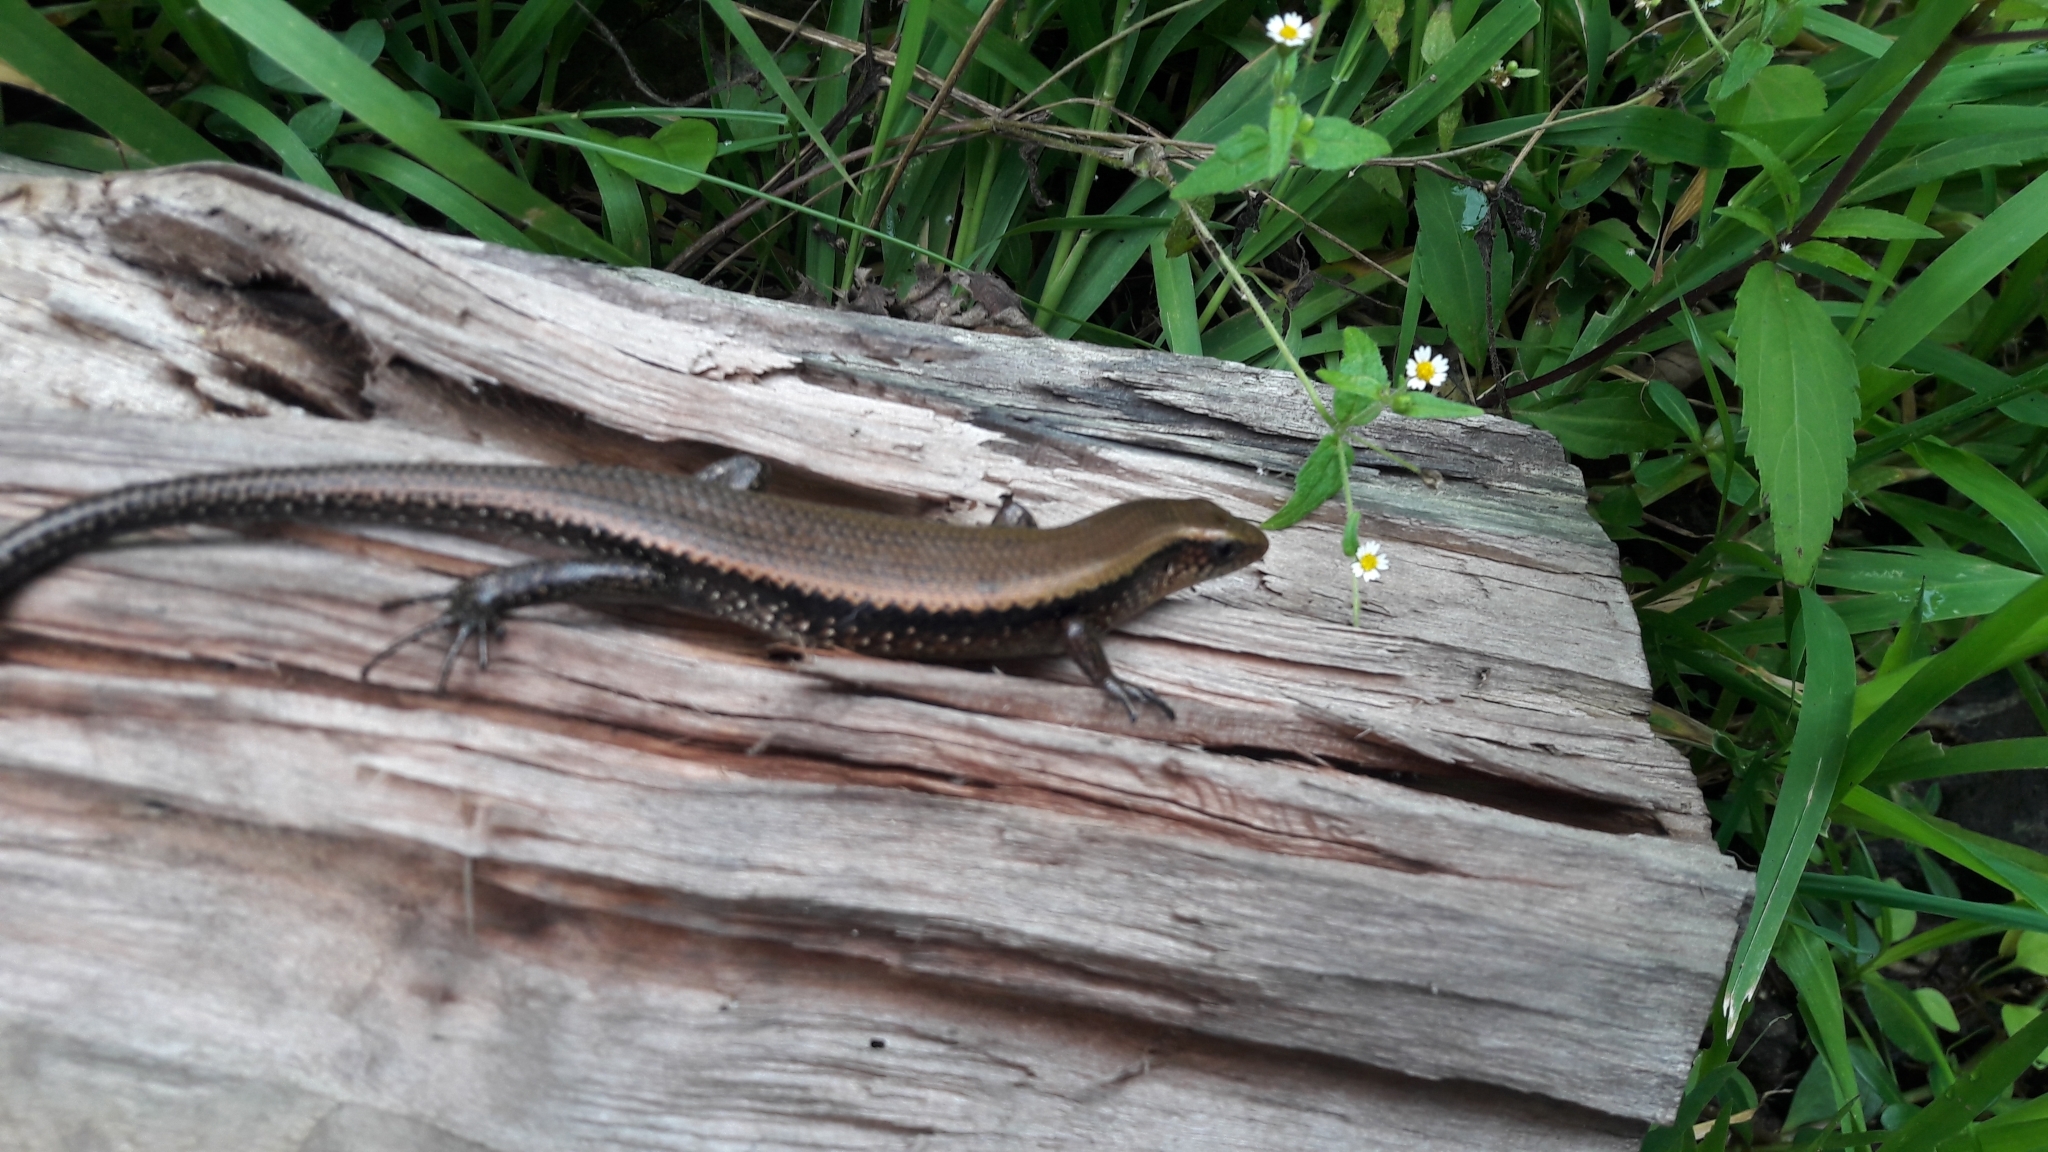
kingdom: Animalia
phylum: Chordata
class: Squamata
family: Scincidae
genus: Eutropis
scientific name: Eutropis multifasciata
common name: Common mabuya
